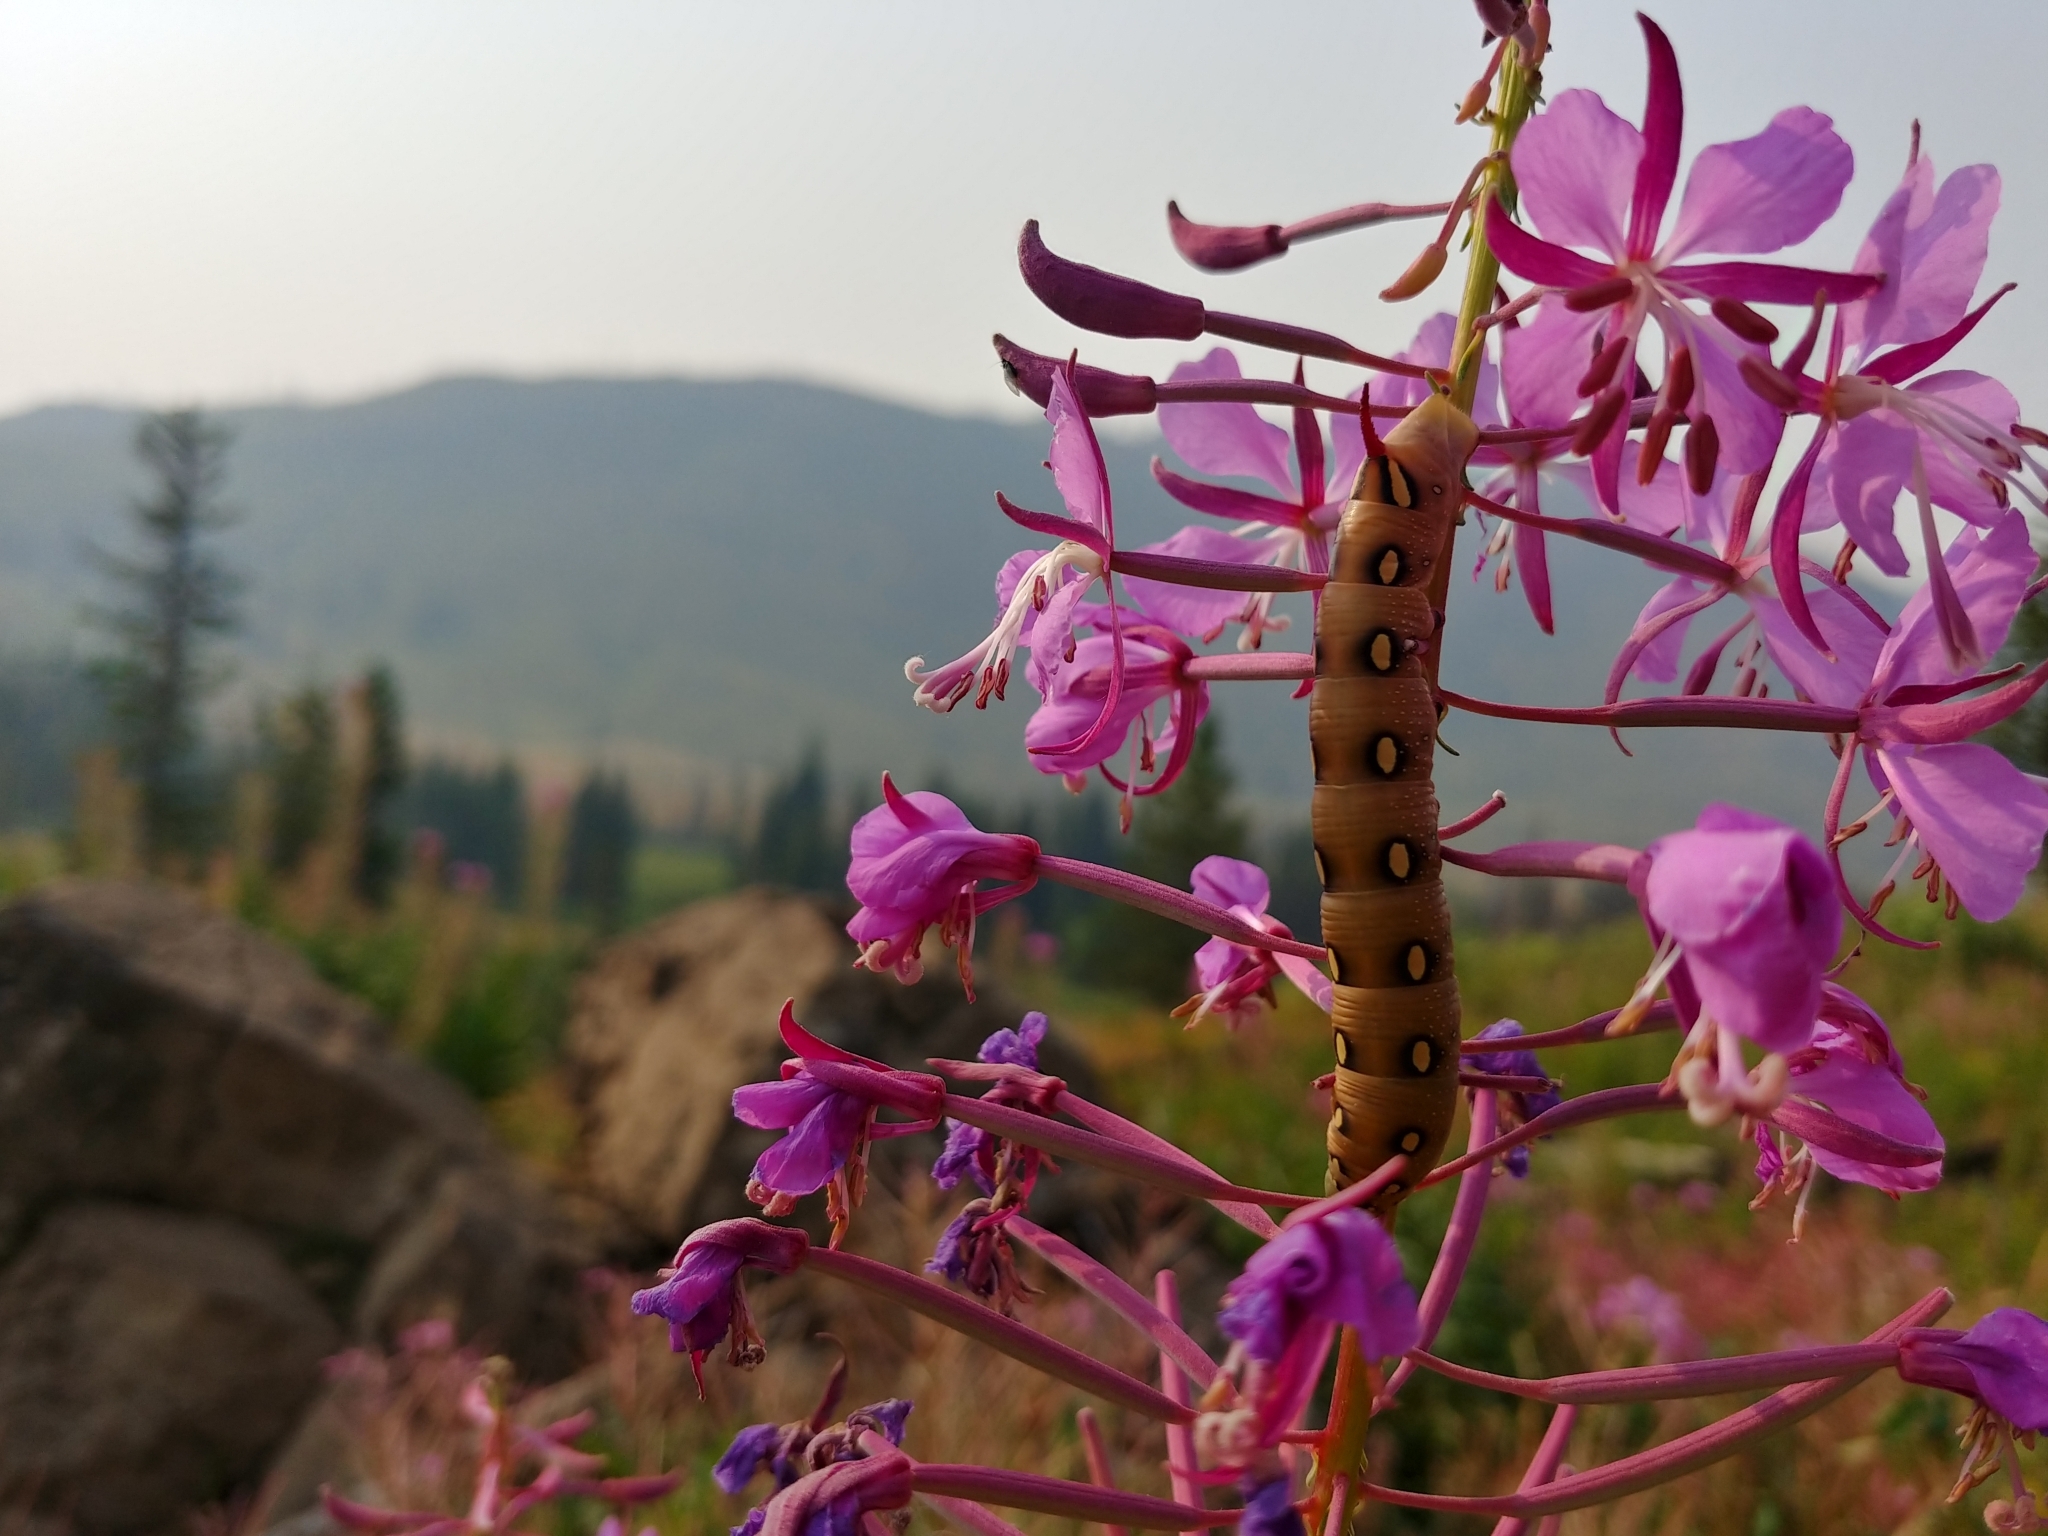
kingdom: Animalia
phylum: Arthropoda
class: Insecta
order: Lepidoptera
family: Sphingidae
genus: Hyles
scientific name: Hyles gallii
